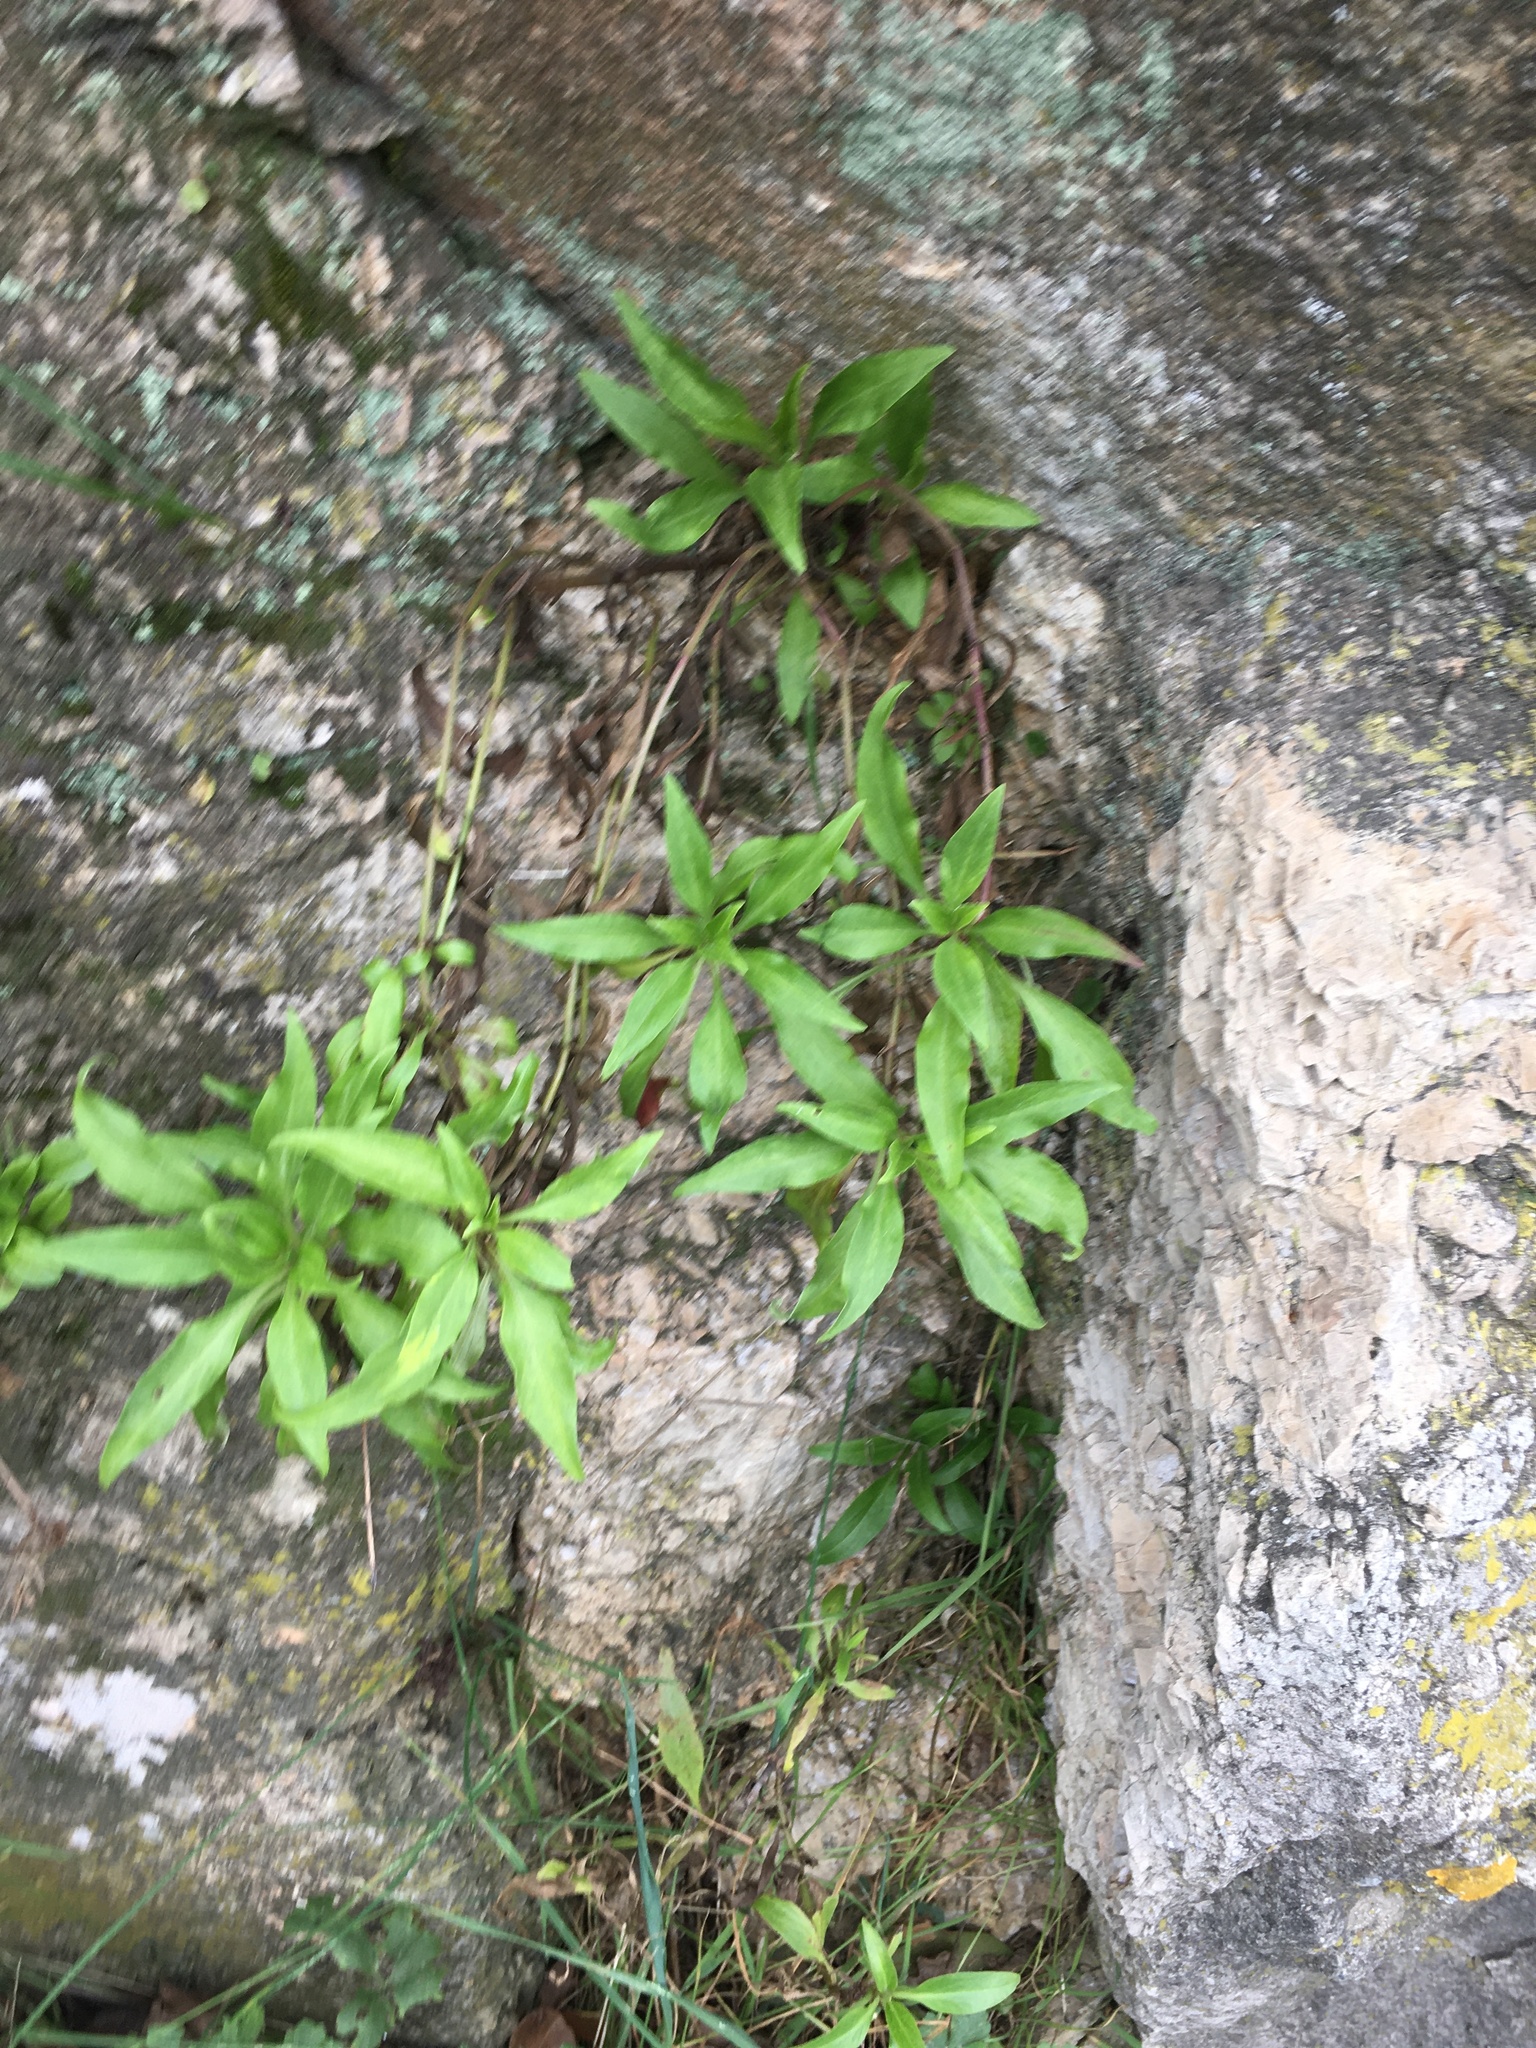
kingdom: Plantae
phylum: Tracheophyta
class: Magnoliopsida
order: Dipsacales
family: Caprifoliaceae
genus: Centranthus
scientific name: Centranthus ruber
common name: Red valerian
